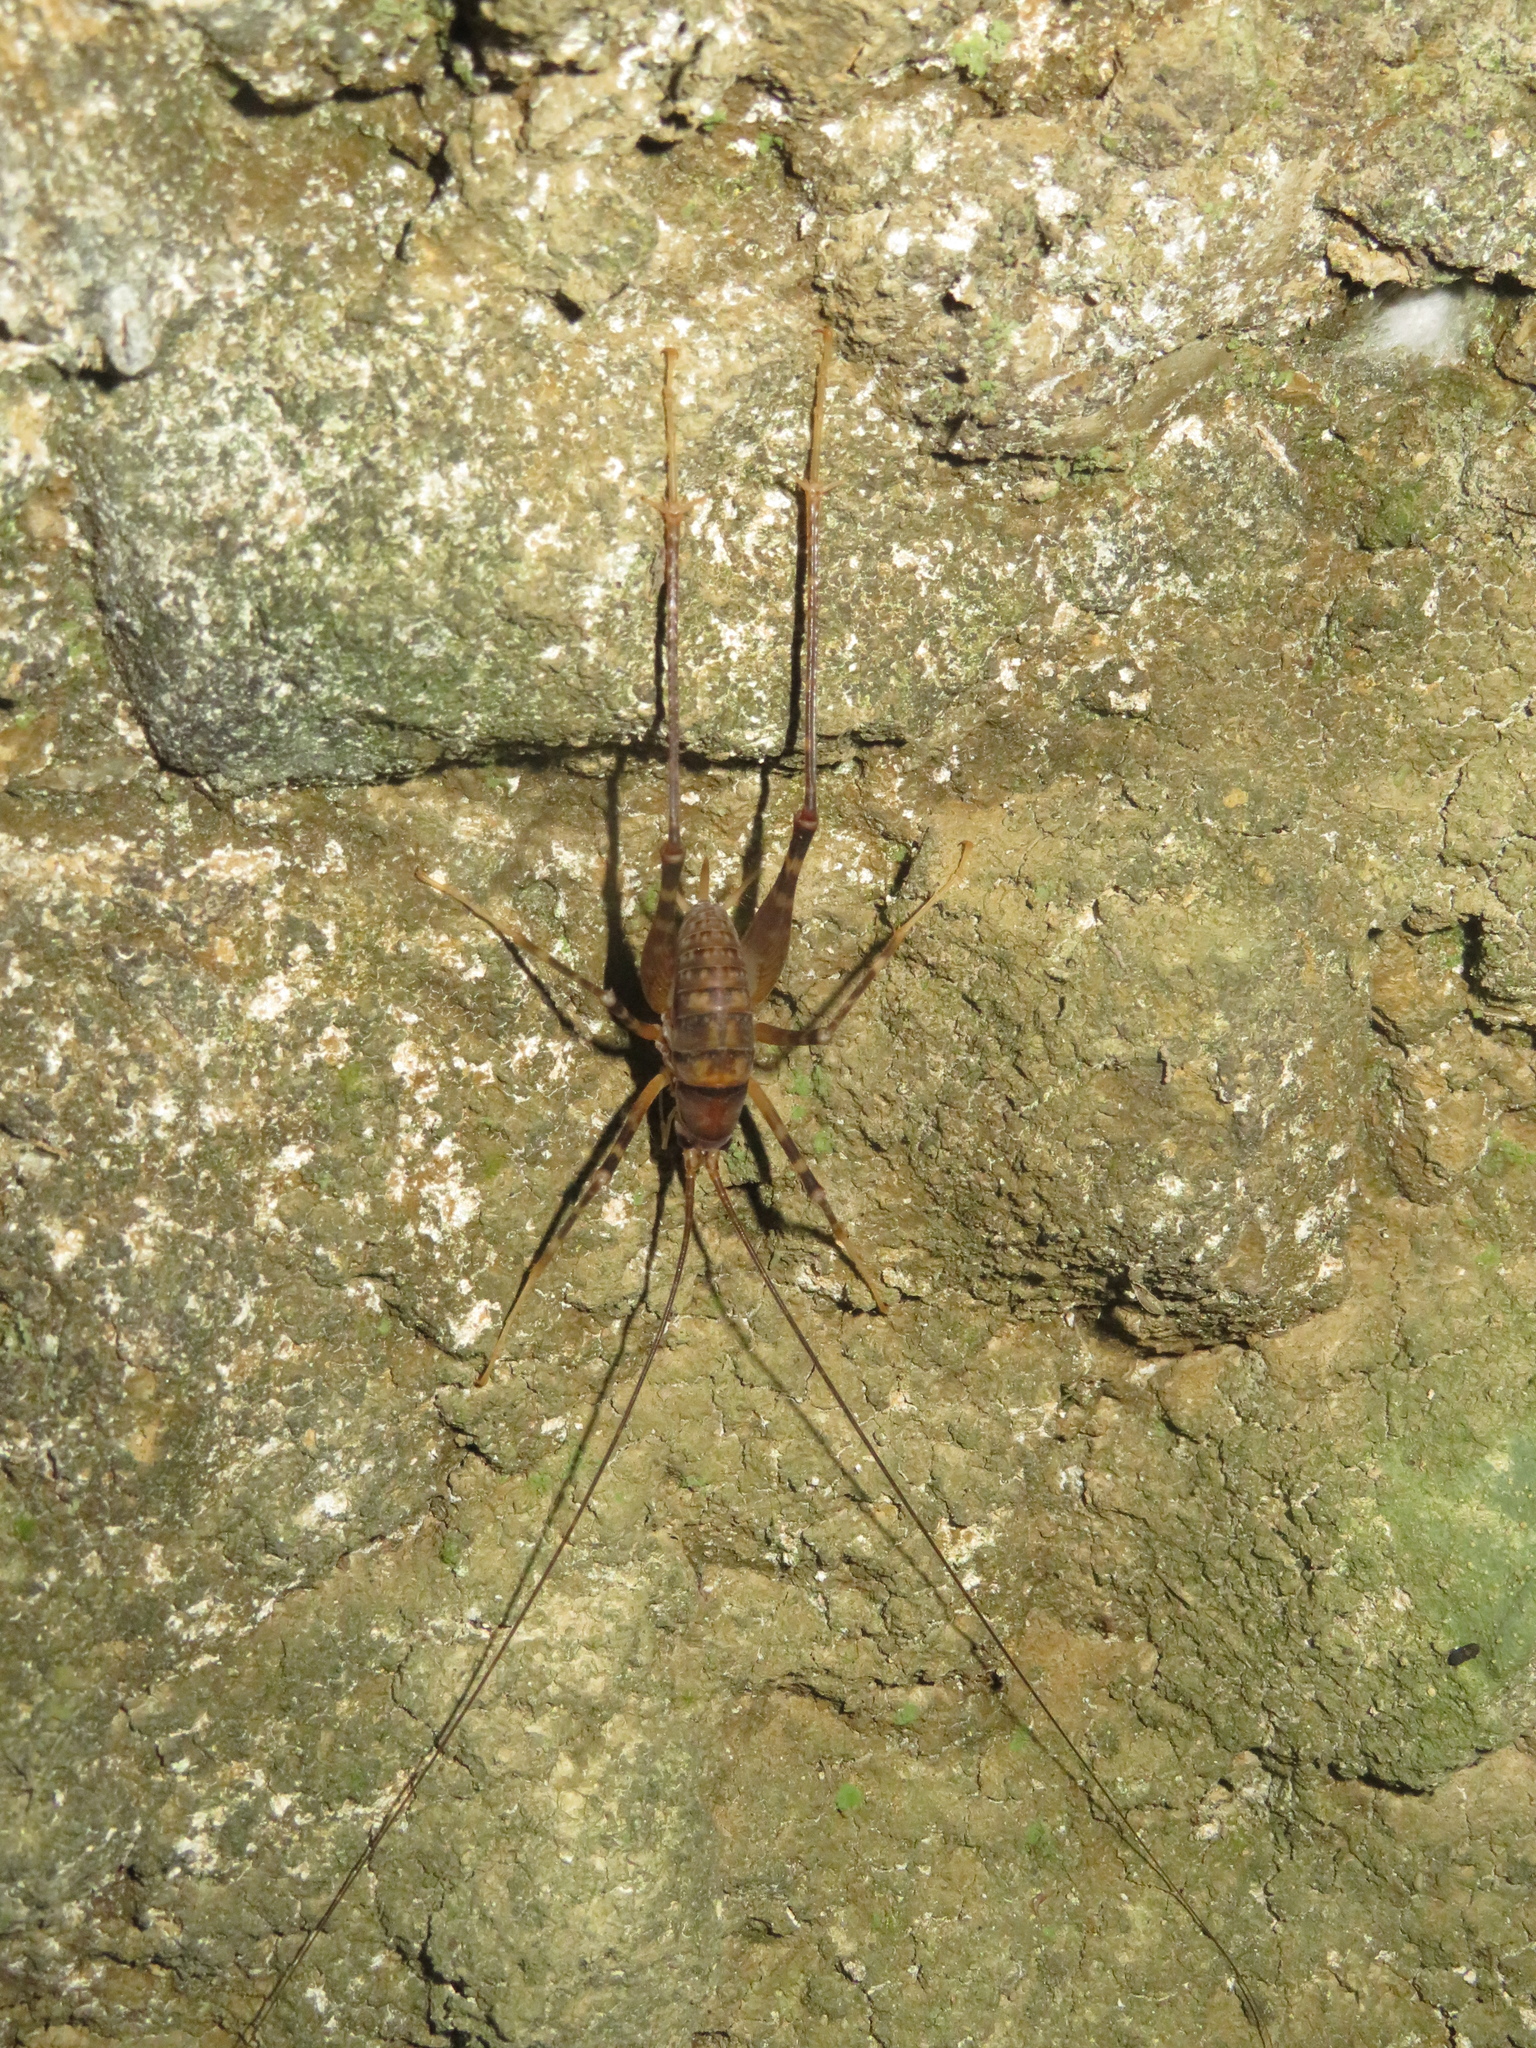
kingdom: Animalia
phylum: Arthropoda
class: Insecta
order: Orthoptera
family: Rhaphidophoridae
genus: Pachyrhamma
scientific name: Pachyrhamma edwardsii
